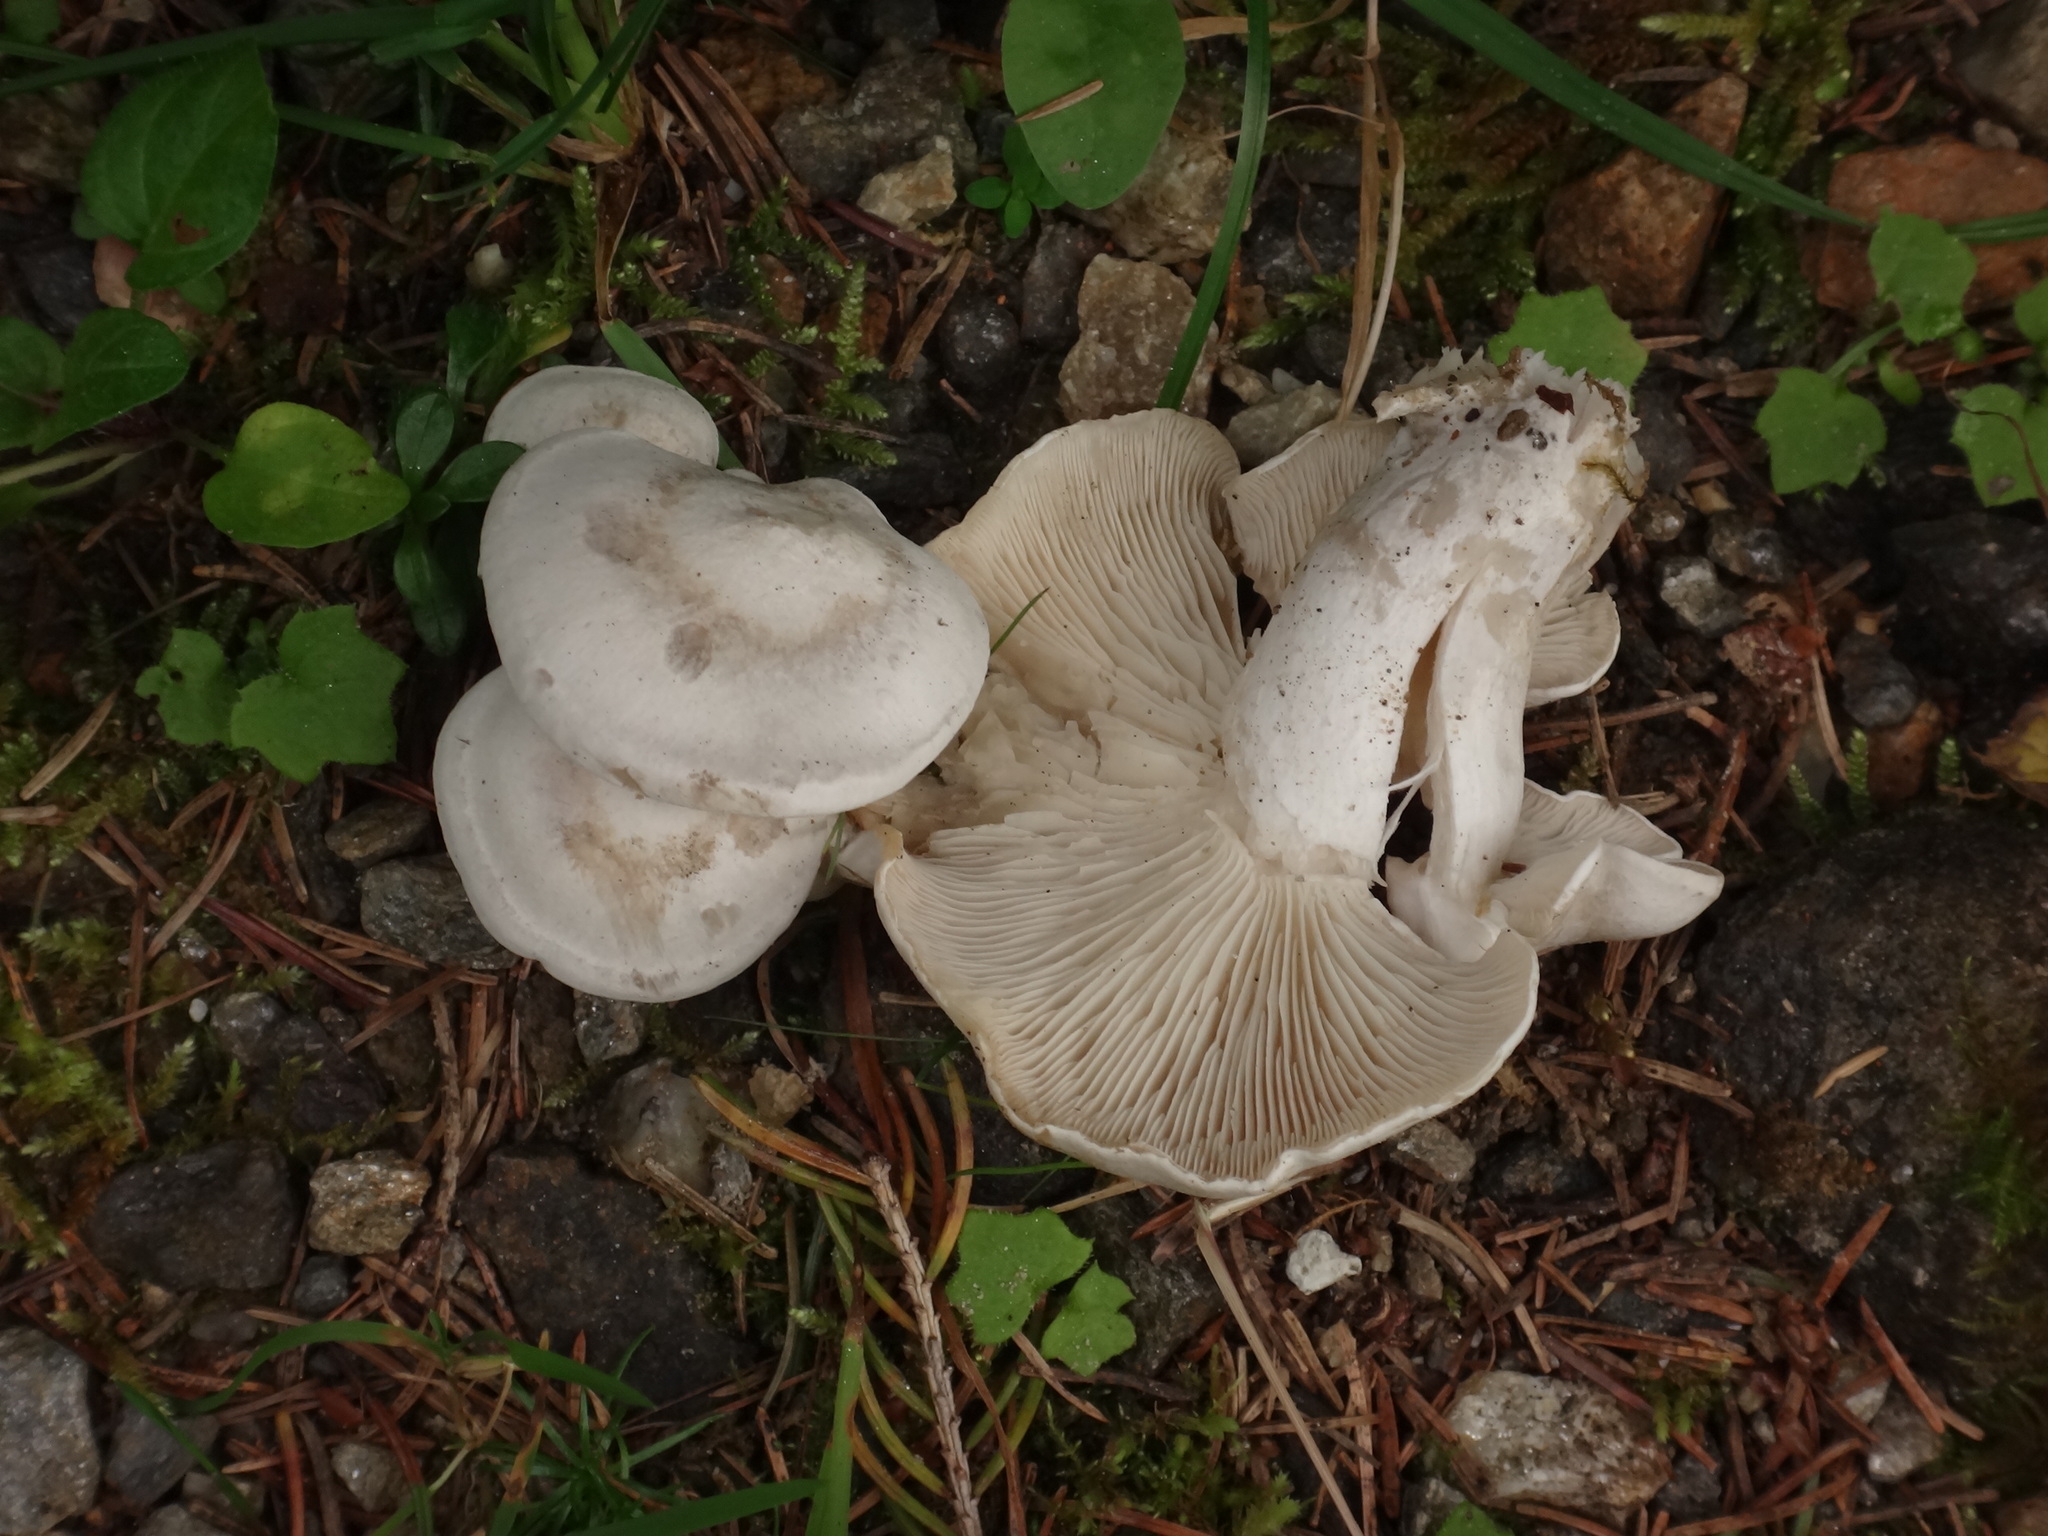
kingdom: Fungi
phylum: Basidiomycota
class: Agaricomycetes
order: Agaricales
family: Tricholomataceae
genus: Leucocybe
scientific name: Leucocybe connata
